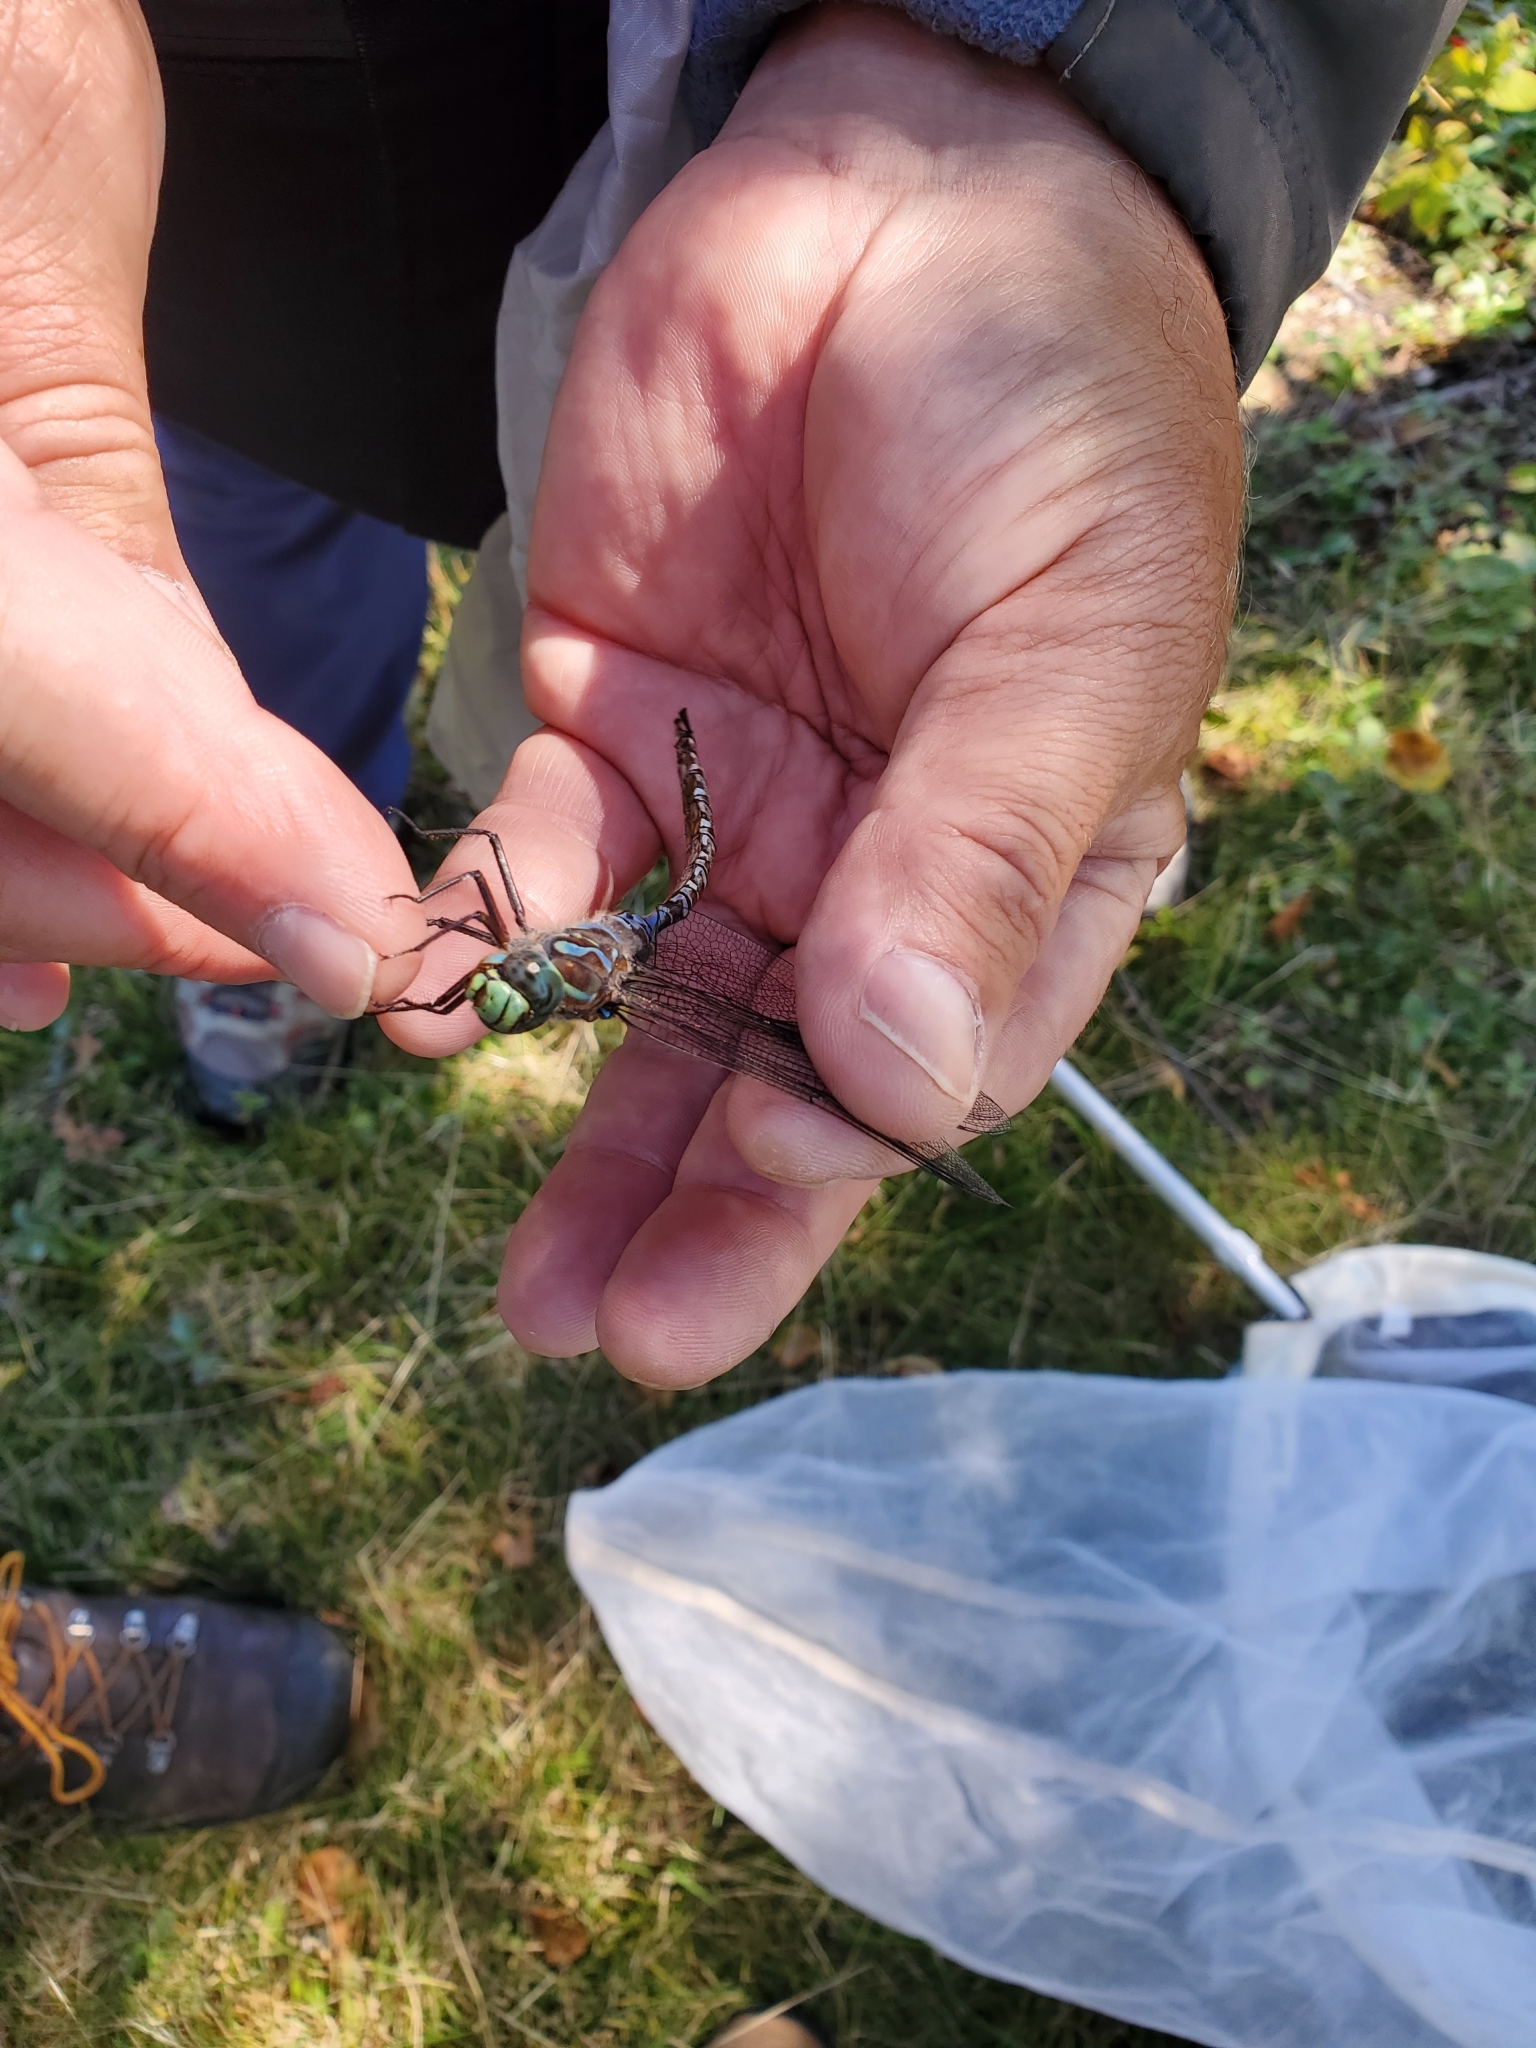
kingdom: Animalia
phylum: Arthropoda
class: Insecta
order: Odonata
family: Aeshnidae
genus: Aeshna
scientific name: Aeshna eremita
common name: Lake darner
